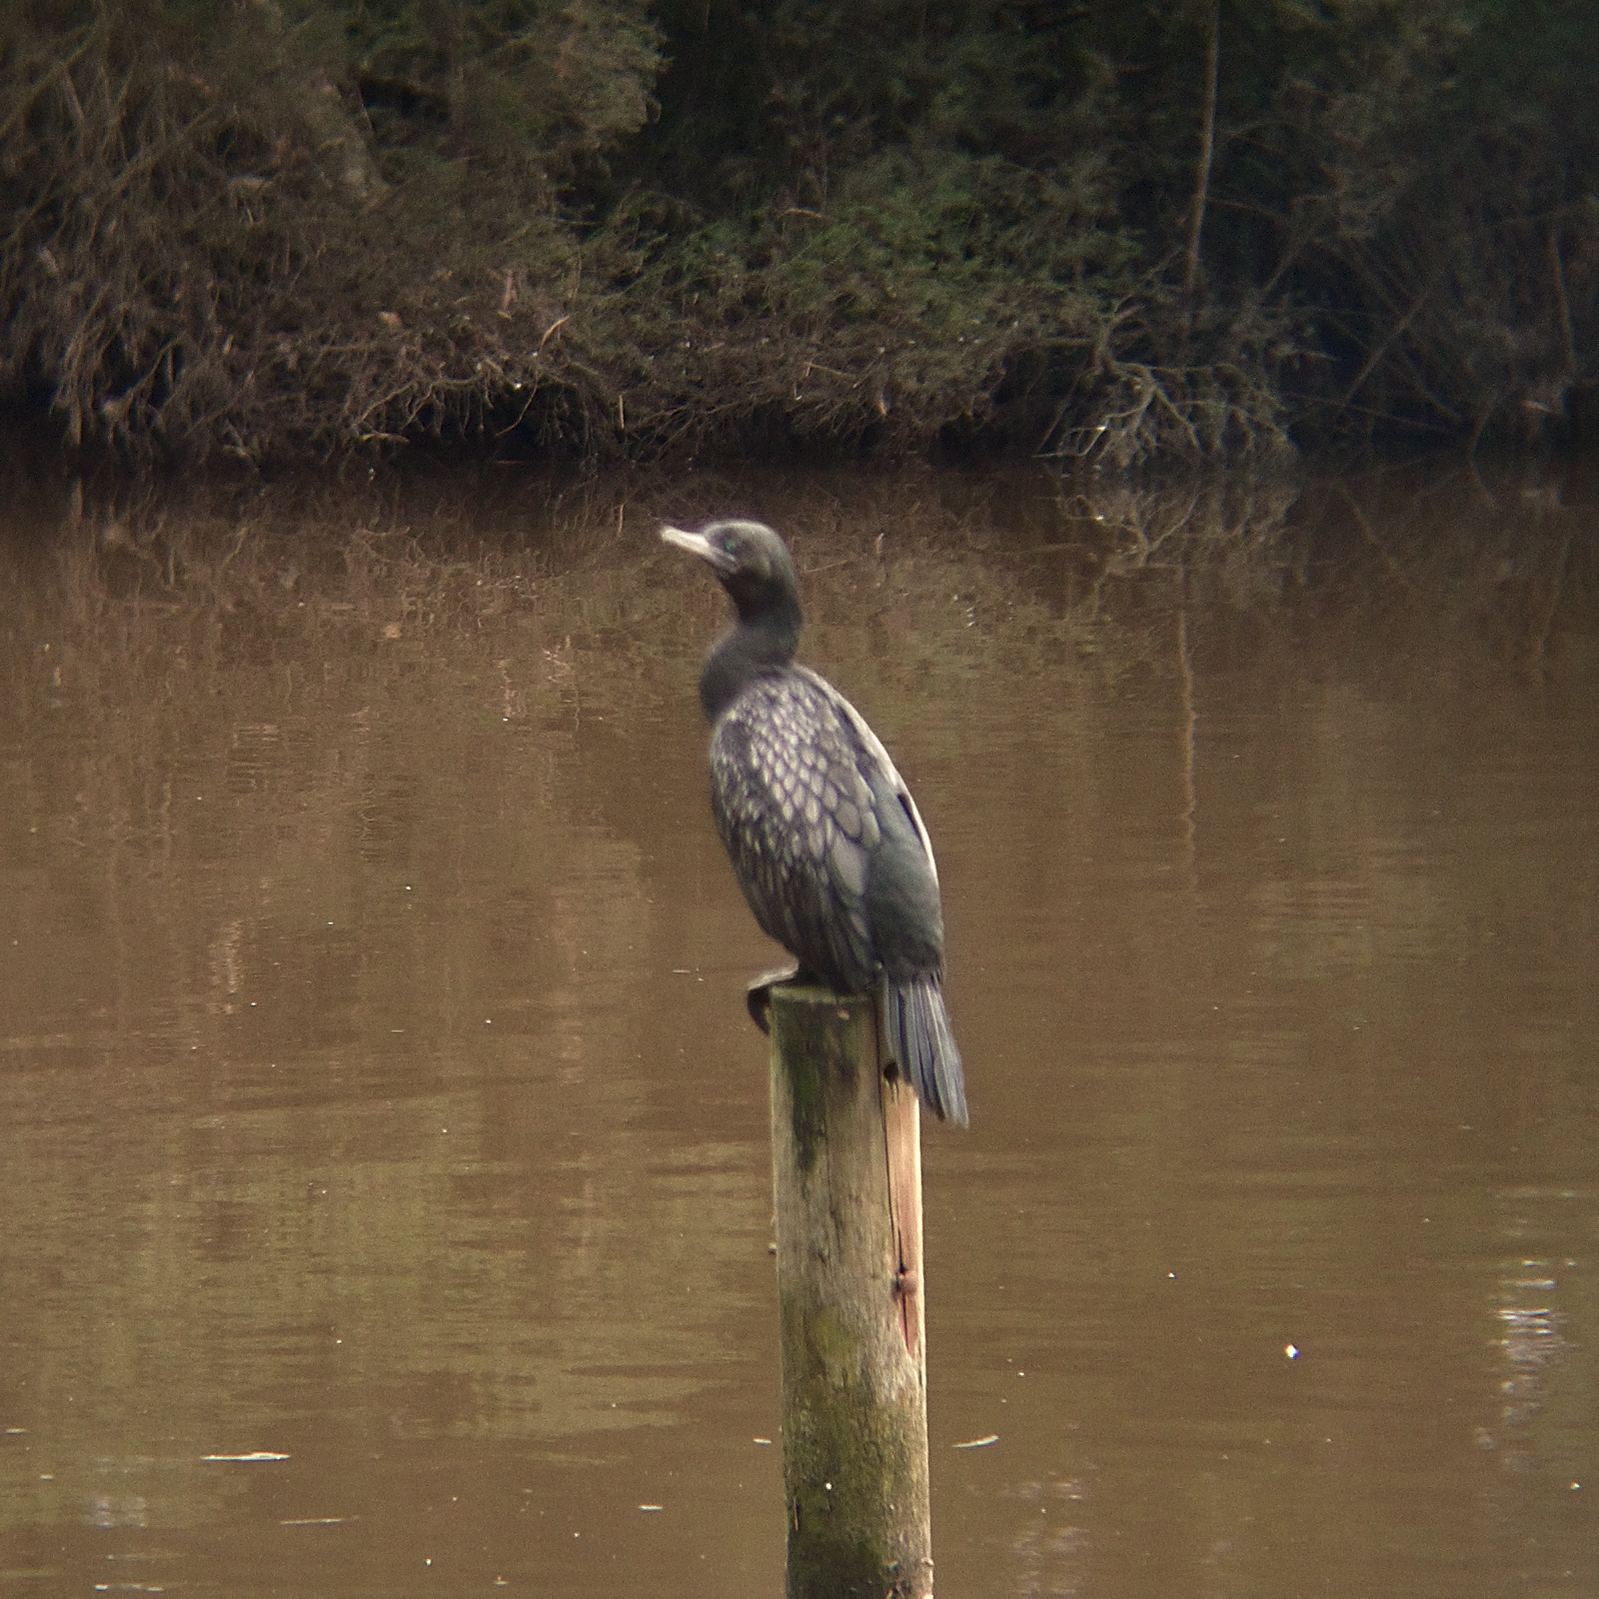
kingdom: Animalia
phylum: Chordata
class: Aves
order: Suliformes
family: Phalacrocoracidae
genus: Phalacrocorax
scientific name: Phalacrocorax sulcirostris
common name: Little black cormorant
